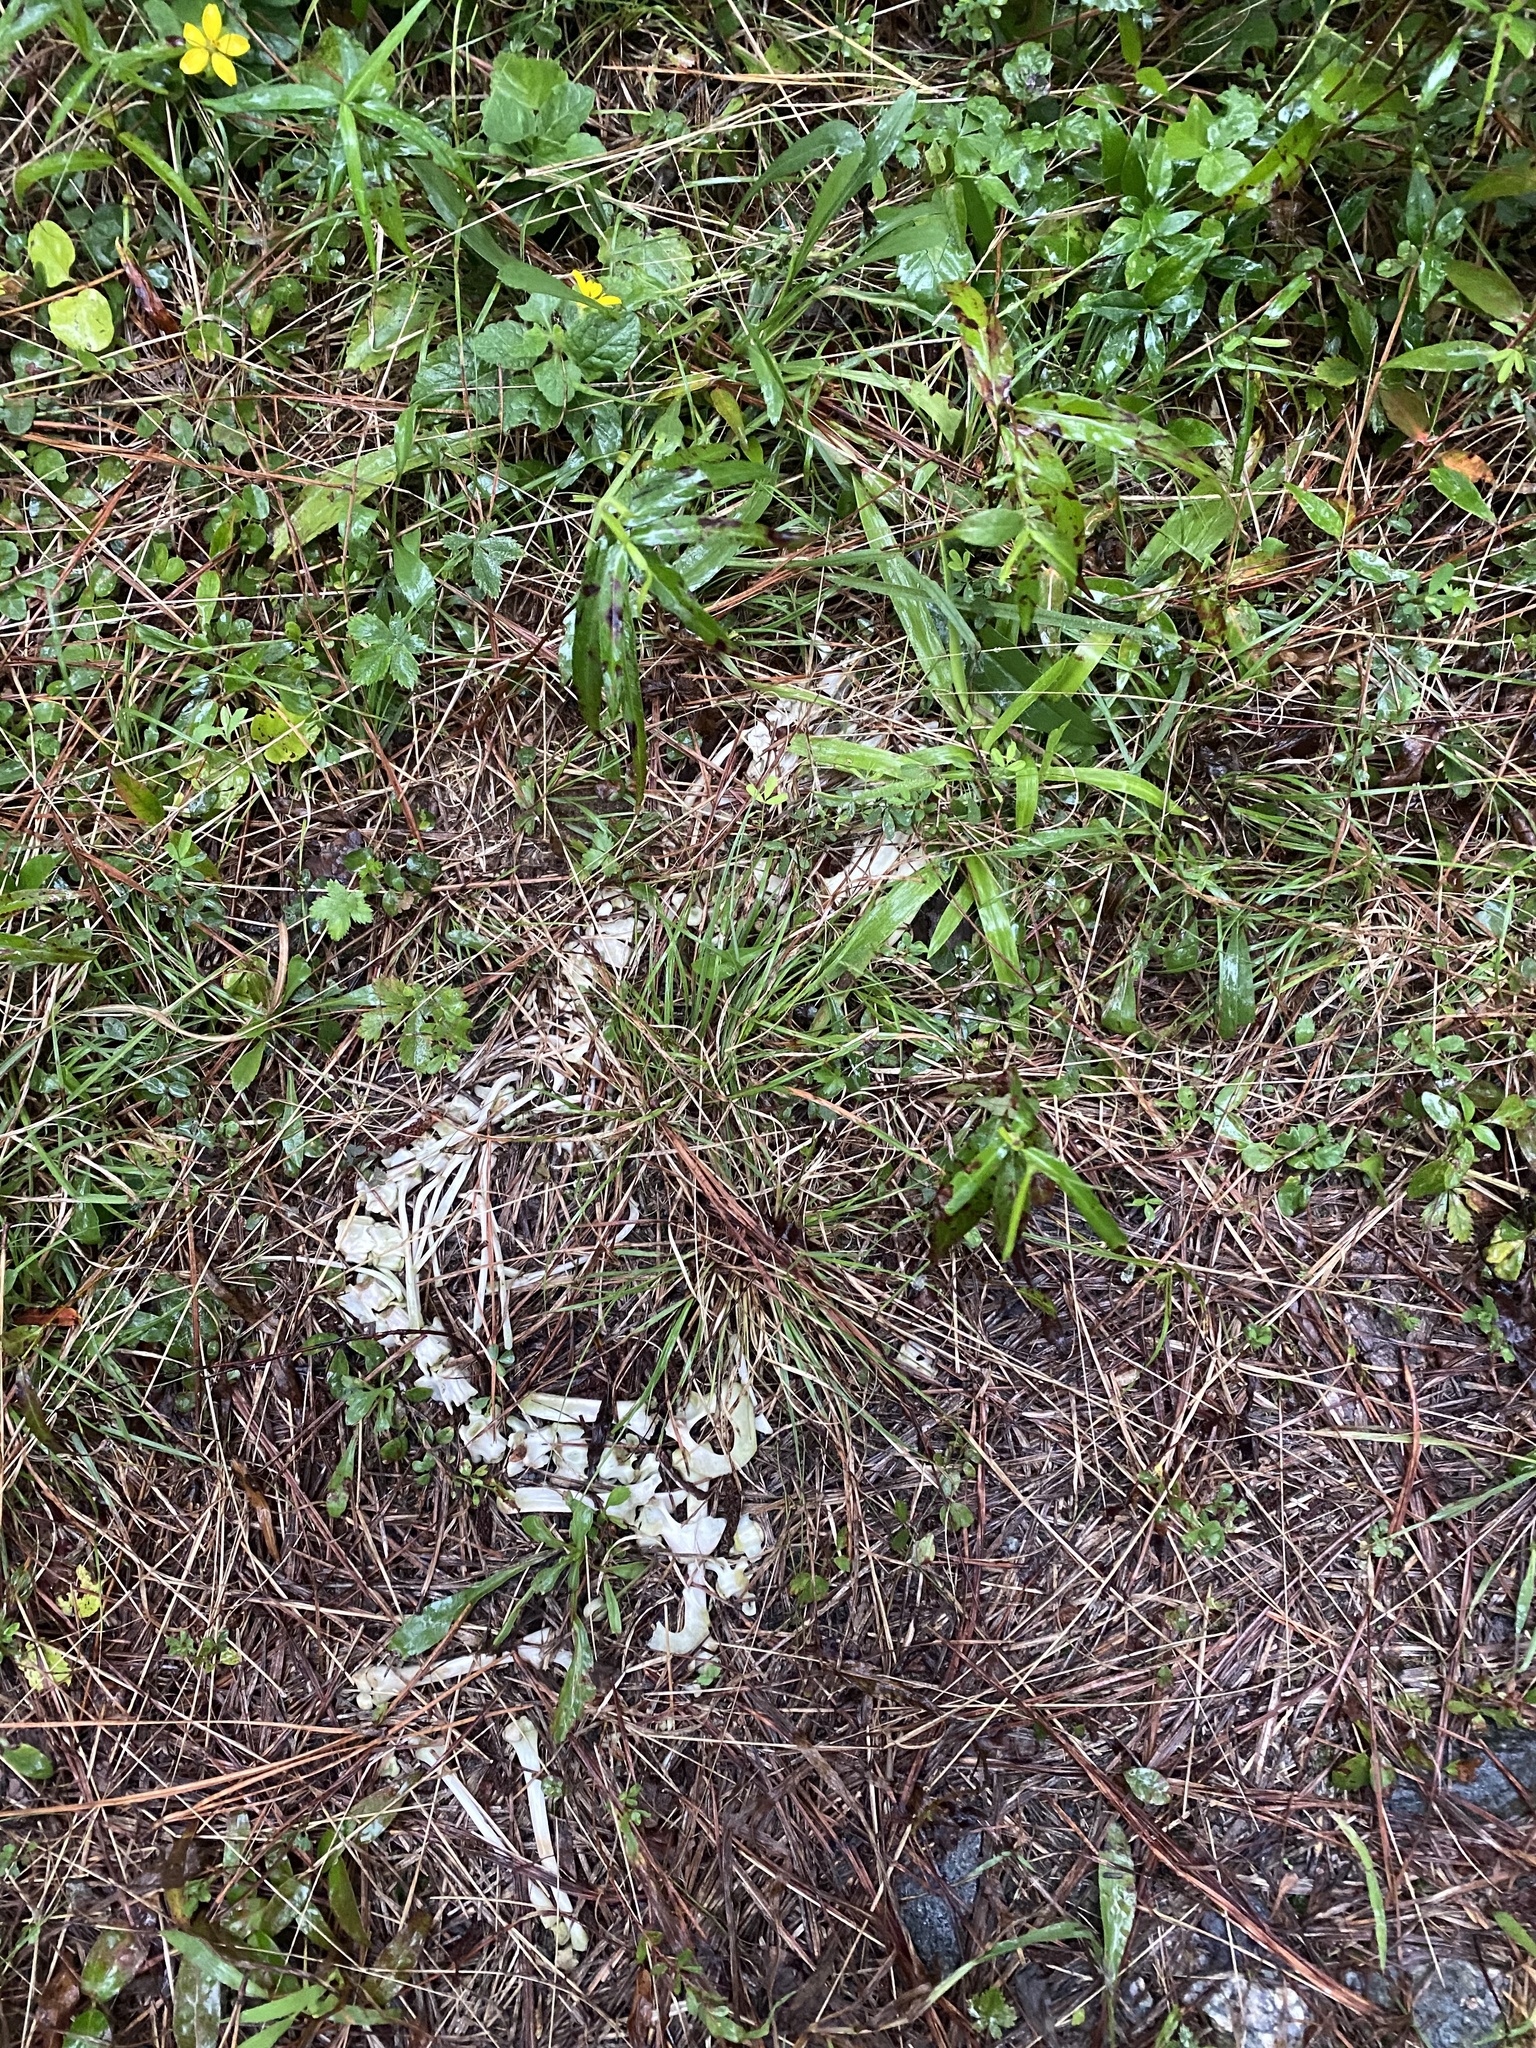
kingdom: Animalia
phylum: Chordata
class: Mammalia
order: Didelphimorphia
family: Didelphidae
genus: Didelphis
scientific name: Didelphis virginiana
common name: Virginia opossum
